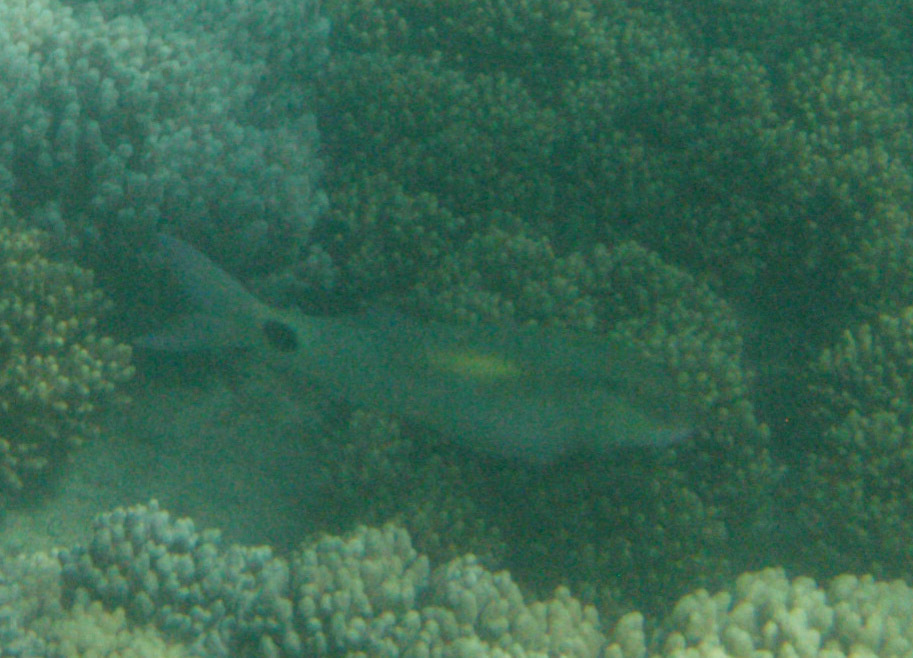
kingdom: Animalia
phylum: Chordata
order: Perciformes
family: Mullidae
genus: Parupeneus
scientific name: Parupeneus indicus
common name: Indian goatfish
